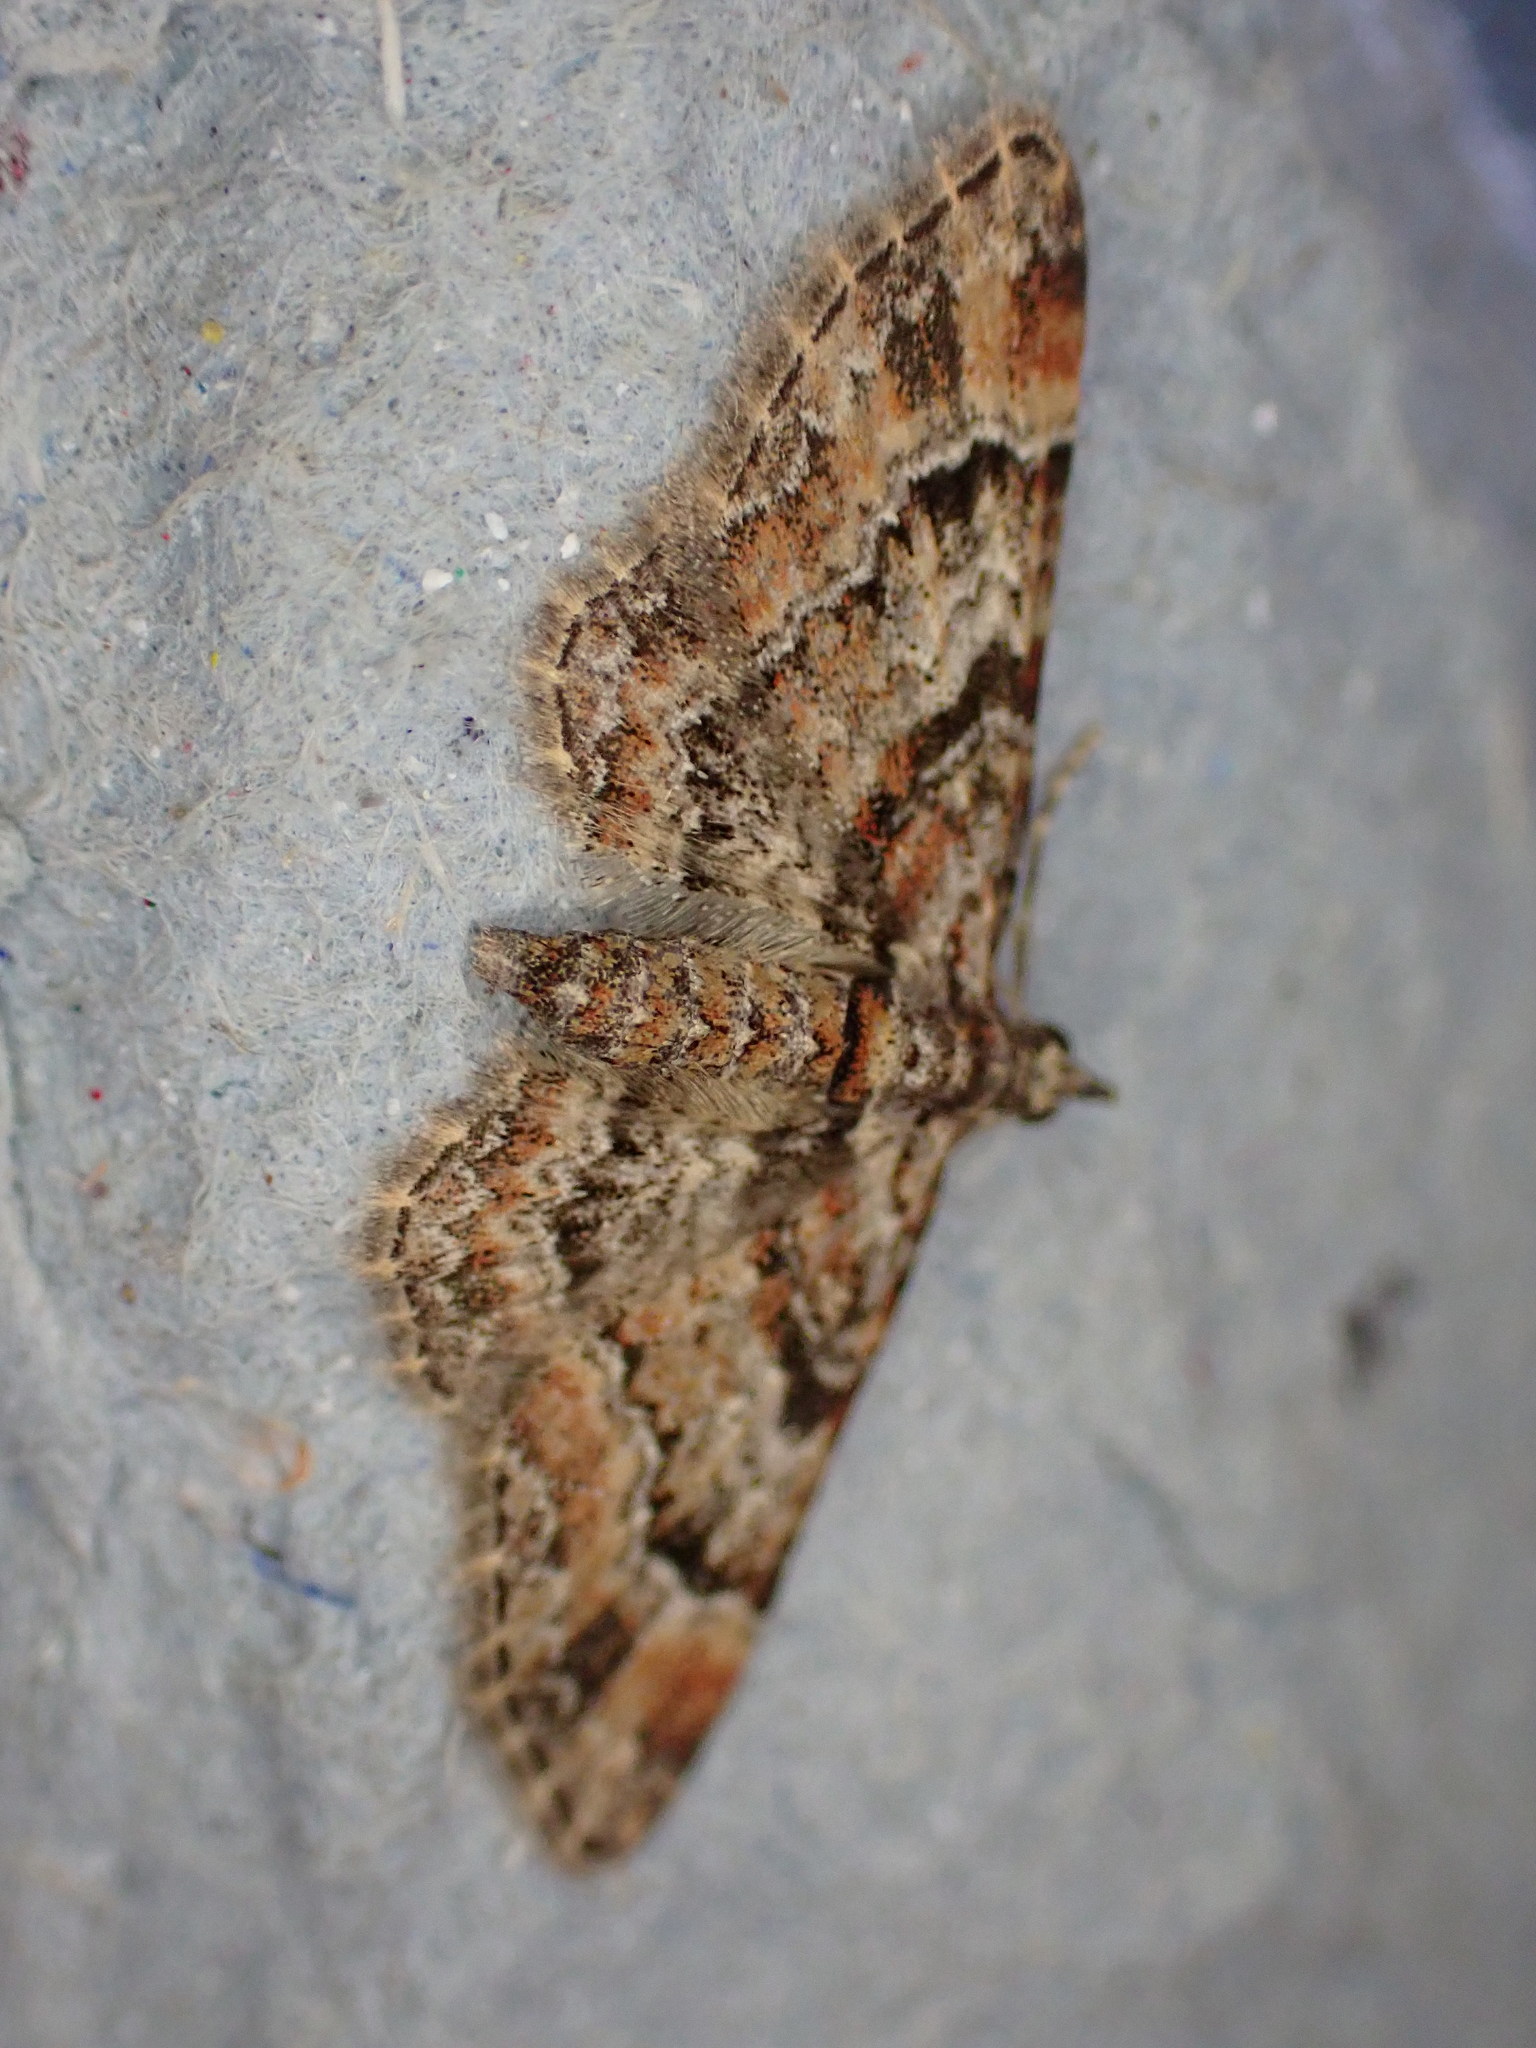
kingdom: Animalia
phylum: Arthropoda
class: Insecta
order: Lepidoptera
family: Geometridae
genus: Gymnoscelis
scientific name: Gymnoscelis rufifasciata
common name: Double-striped pug
